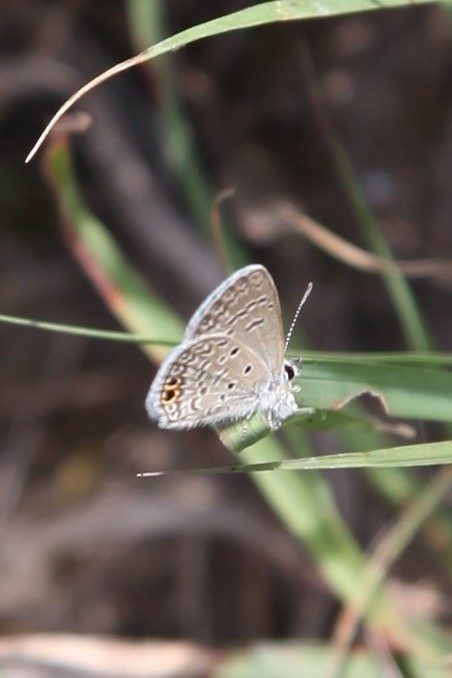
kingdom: Animalia
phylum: Arthropoda
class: Insecta
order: Lepidoptera
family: Lycaenidae
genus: Hemiargus
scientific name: Hemiargus ceraunus
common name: Ceraunus blue
